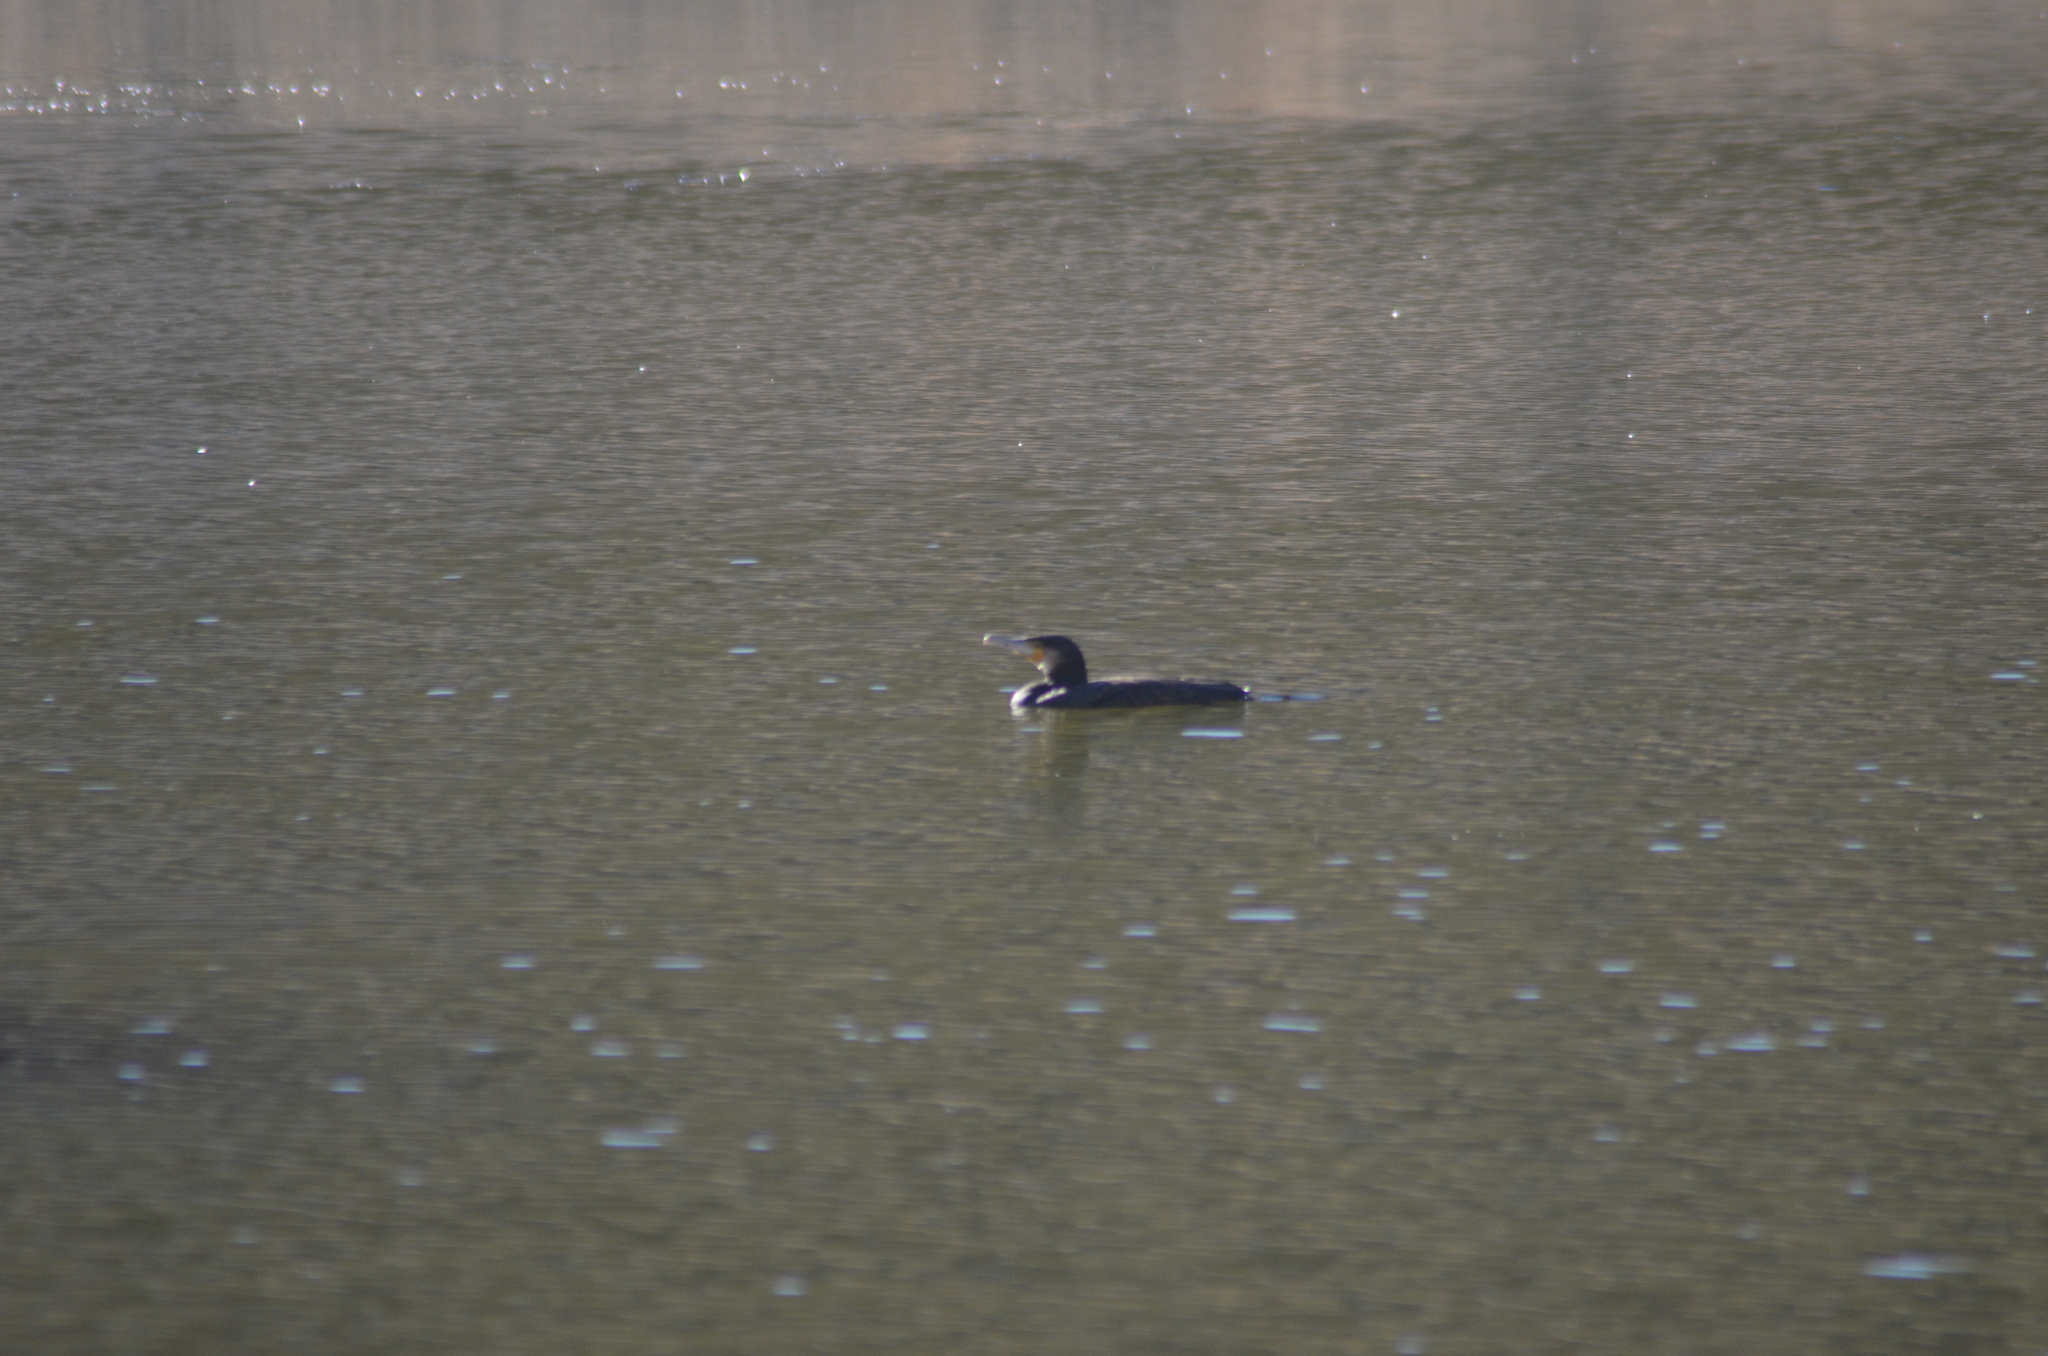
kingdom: Animalia
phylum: Chordata
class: Aves
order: Suliformes
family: Phalacrocoracidae
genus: Phalacrocorax
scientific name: Phalacrocorax carbo
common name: Great cormorant
